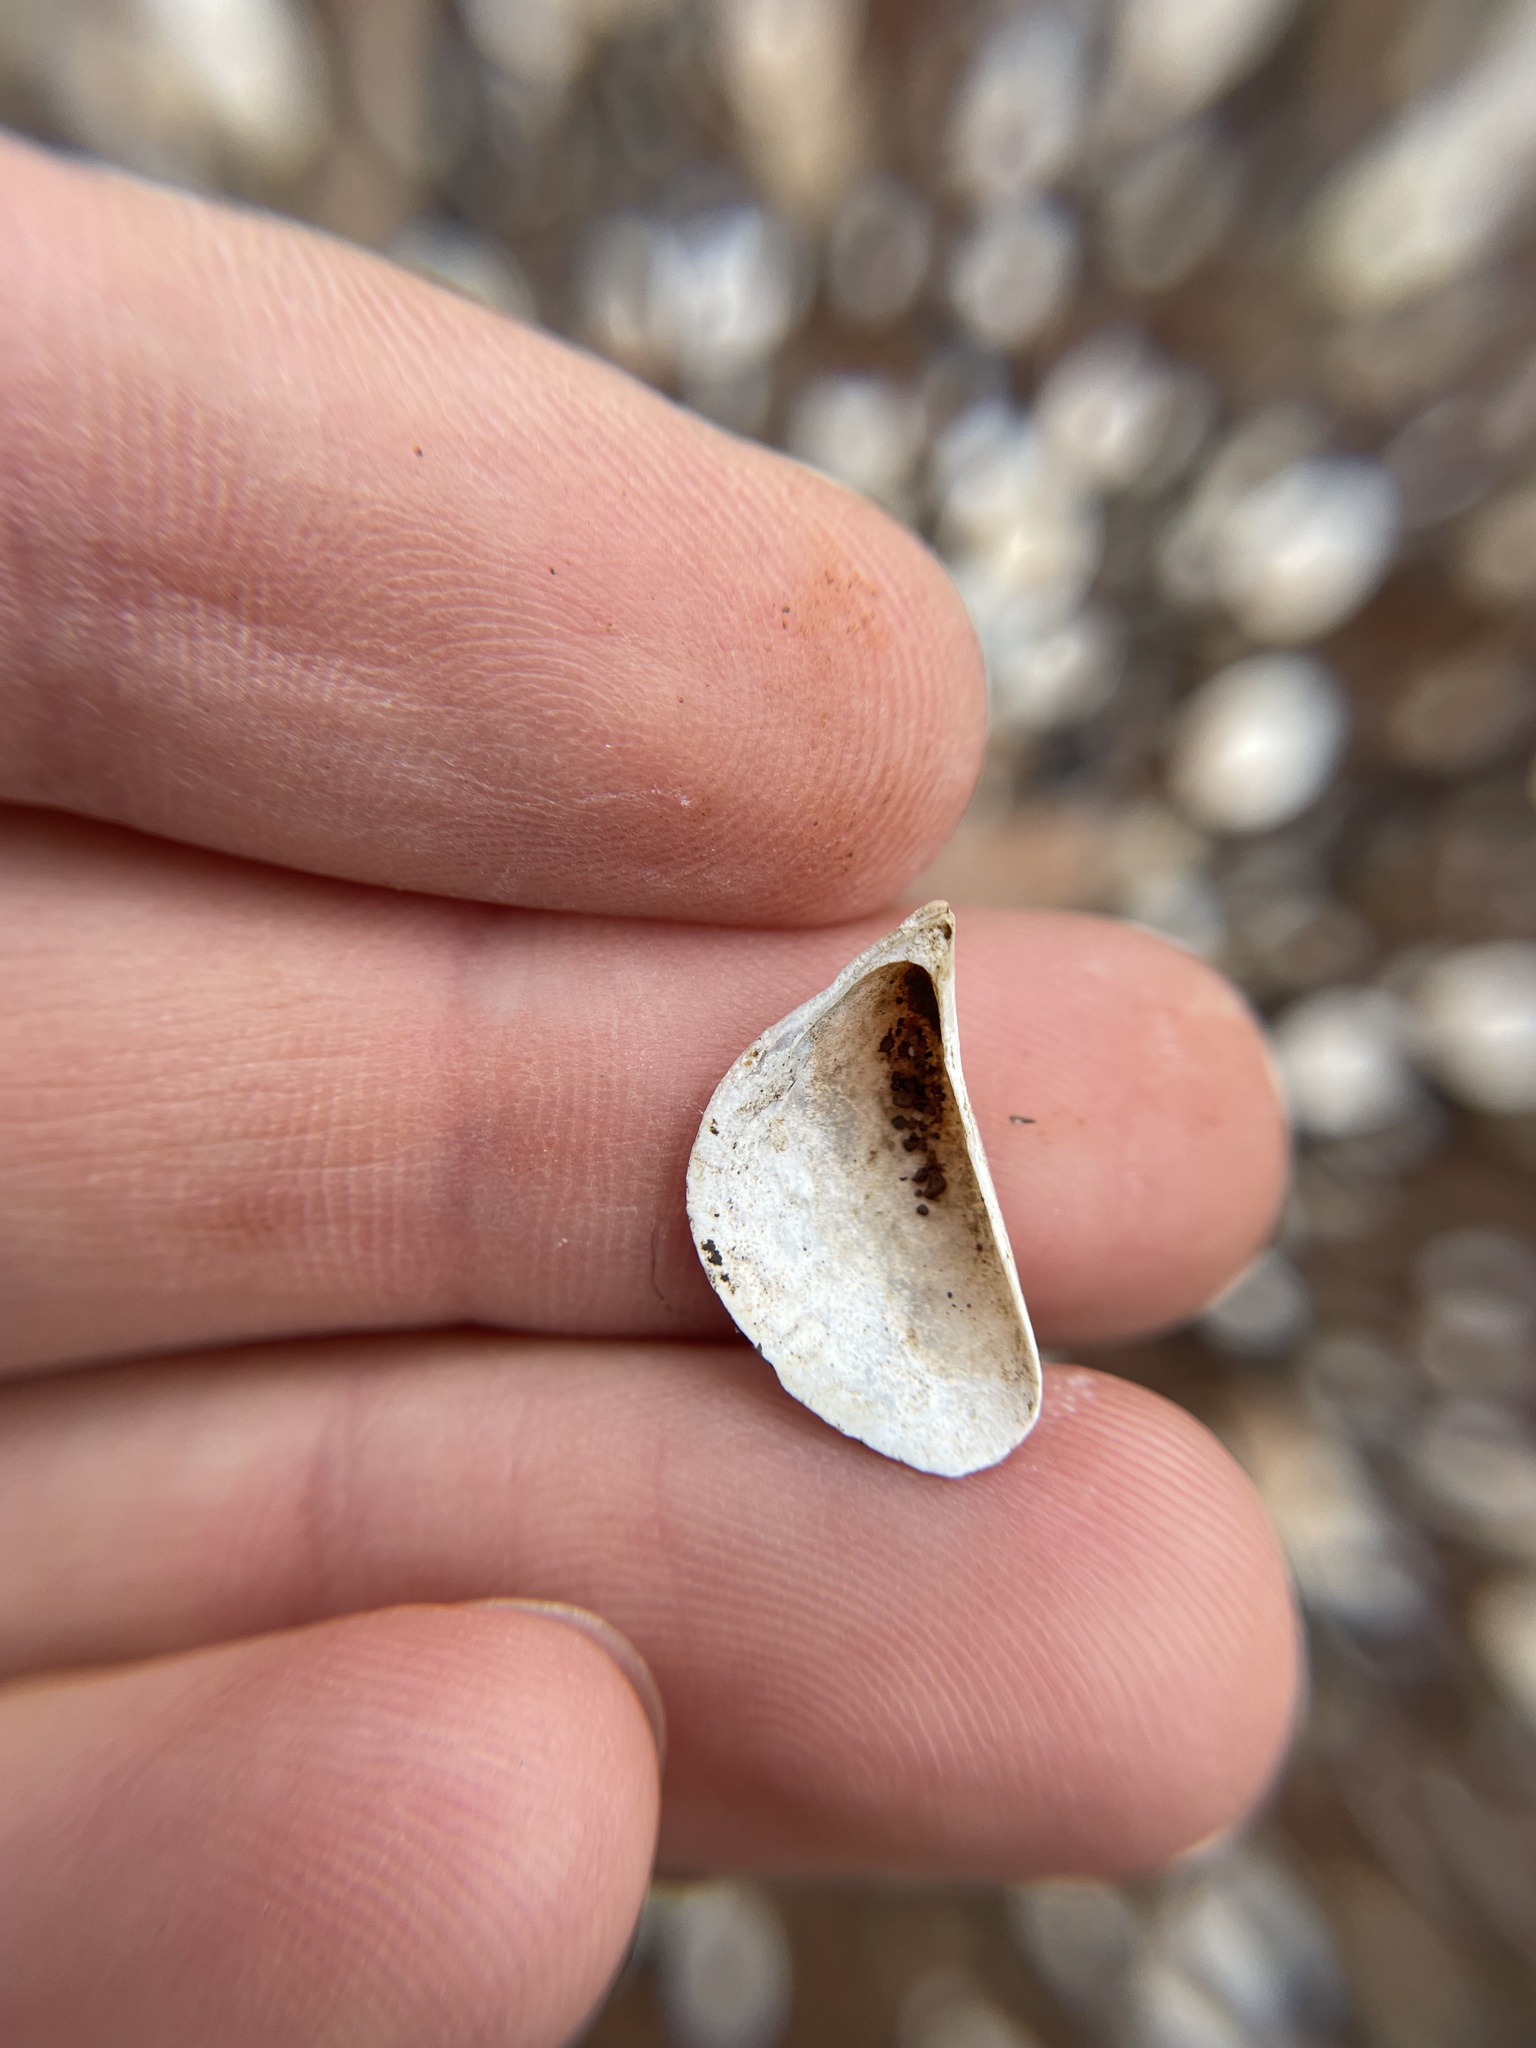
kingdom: Animalia
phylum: Mollusca
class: Bivalvia
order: Myida
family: Dreissenidae
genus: Dreissena
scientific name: Dreissena polymorpha
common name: Zebra mussel
